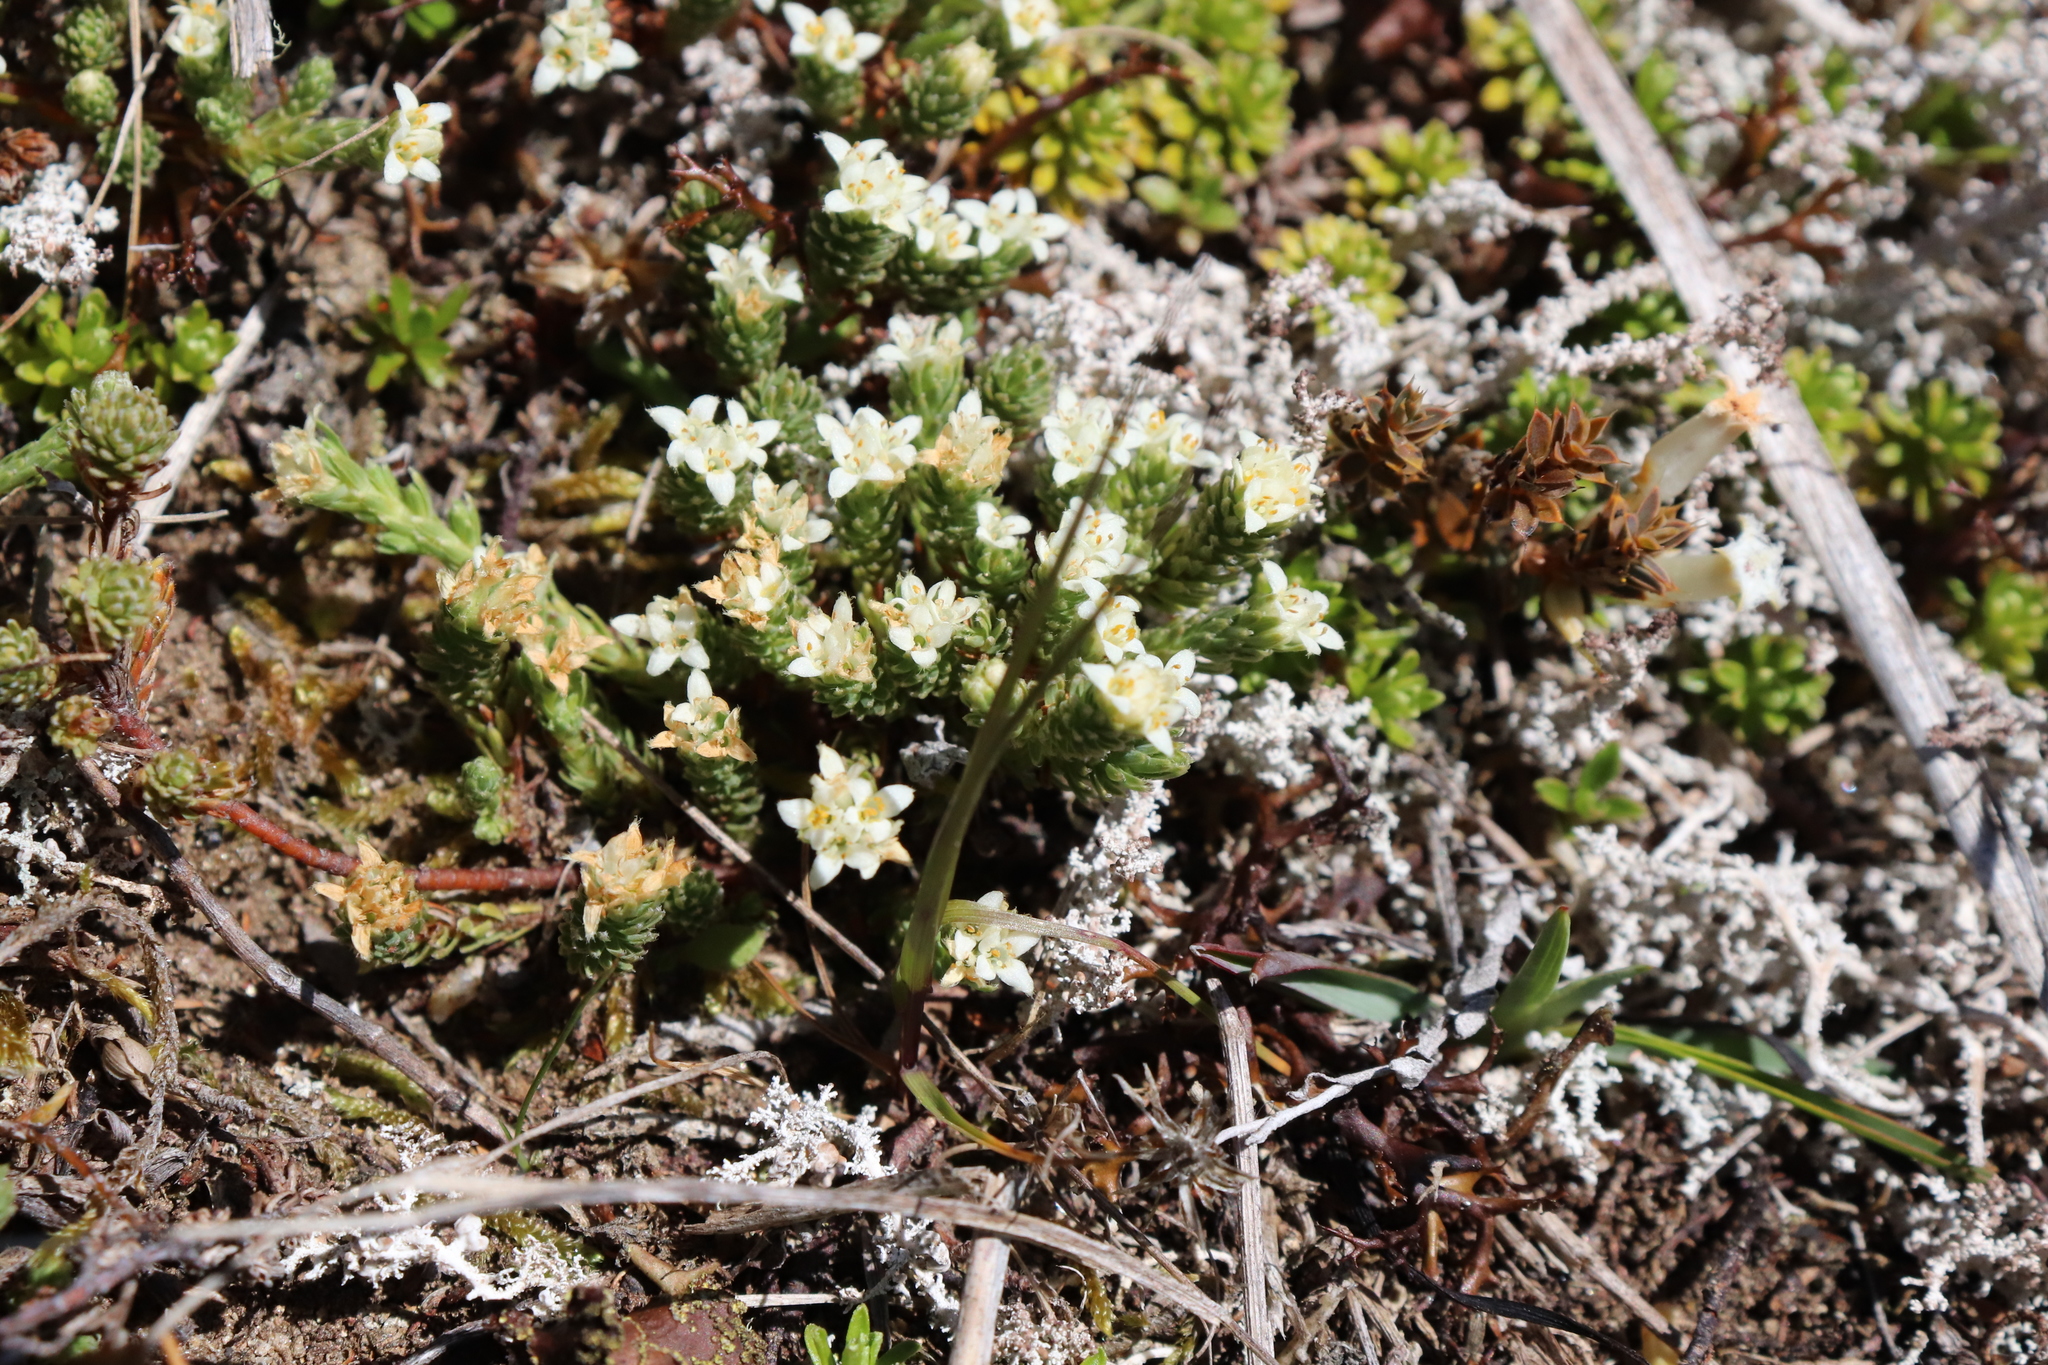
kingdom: Plantae
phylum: Tracheophyta
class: Magnoliopsida
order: Malvales
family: Thymelaeaceae
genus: Kelleria
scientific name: Kelleria dieffenbachii
